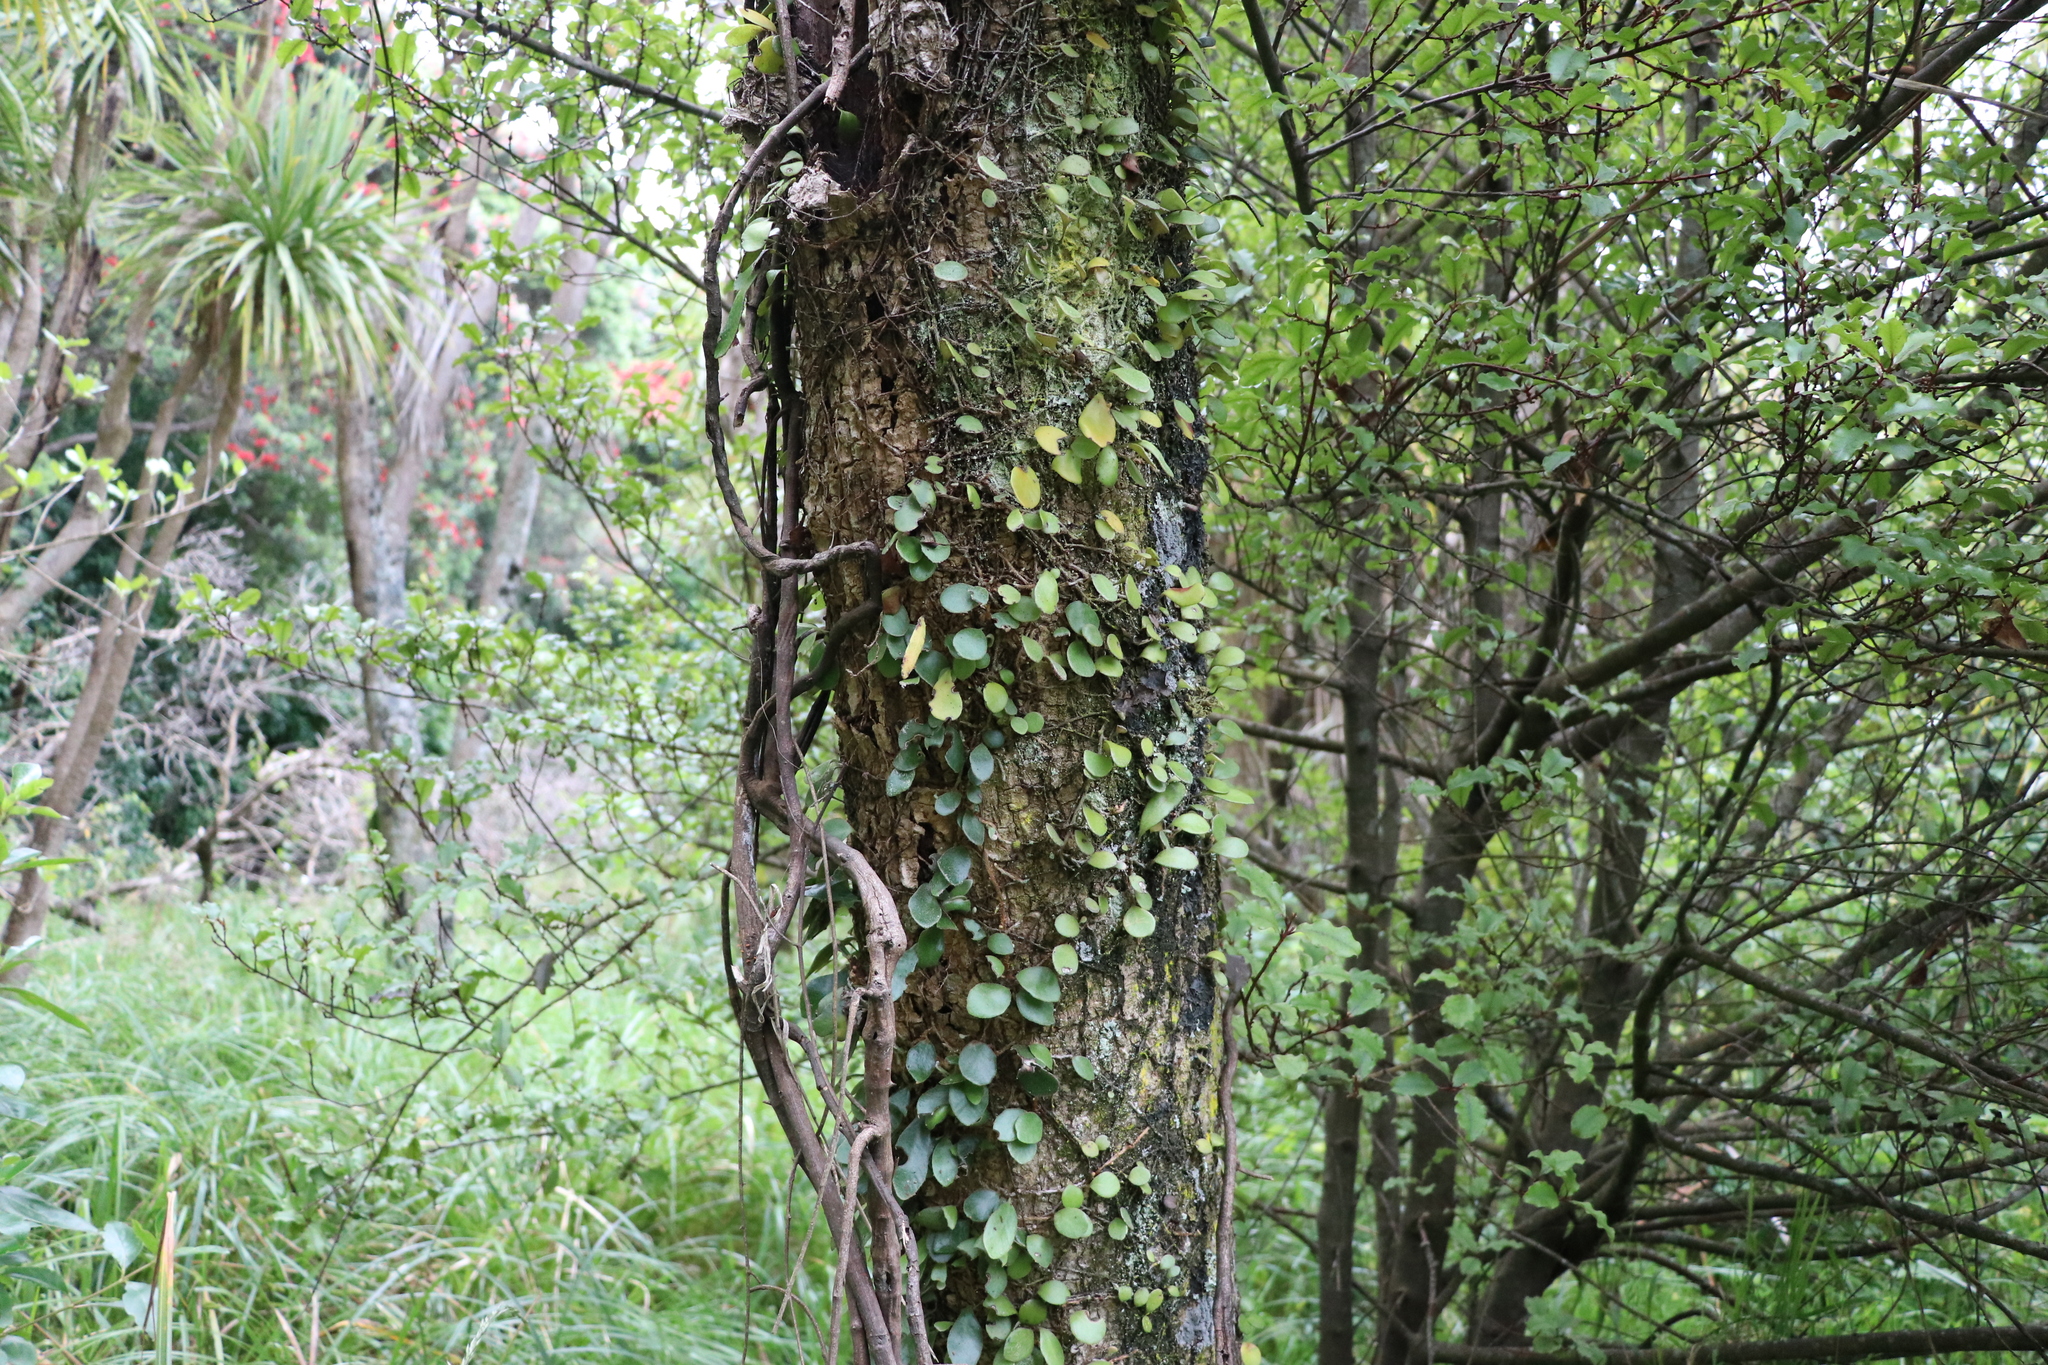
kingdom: Plantae
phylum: Tracheophyta
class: Polypodiopsida
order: Polypodiales
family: Polypodiaceae
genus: Pyrrosia
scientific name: Pyrrosia eleagnifolia
